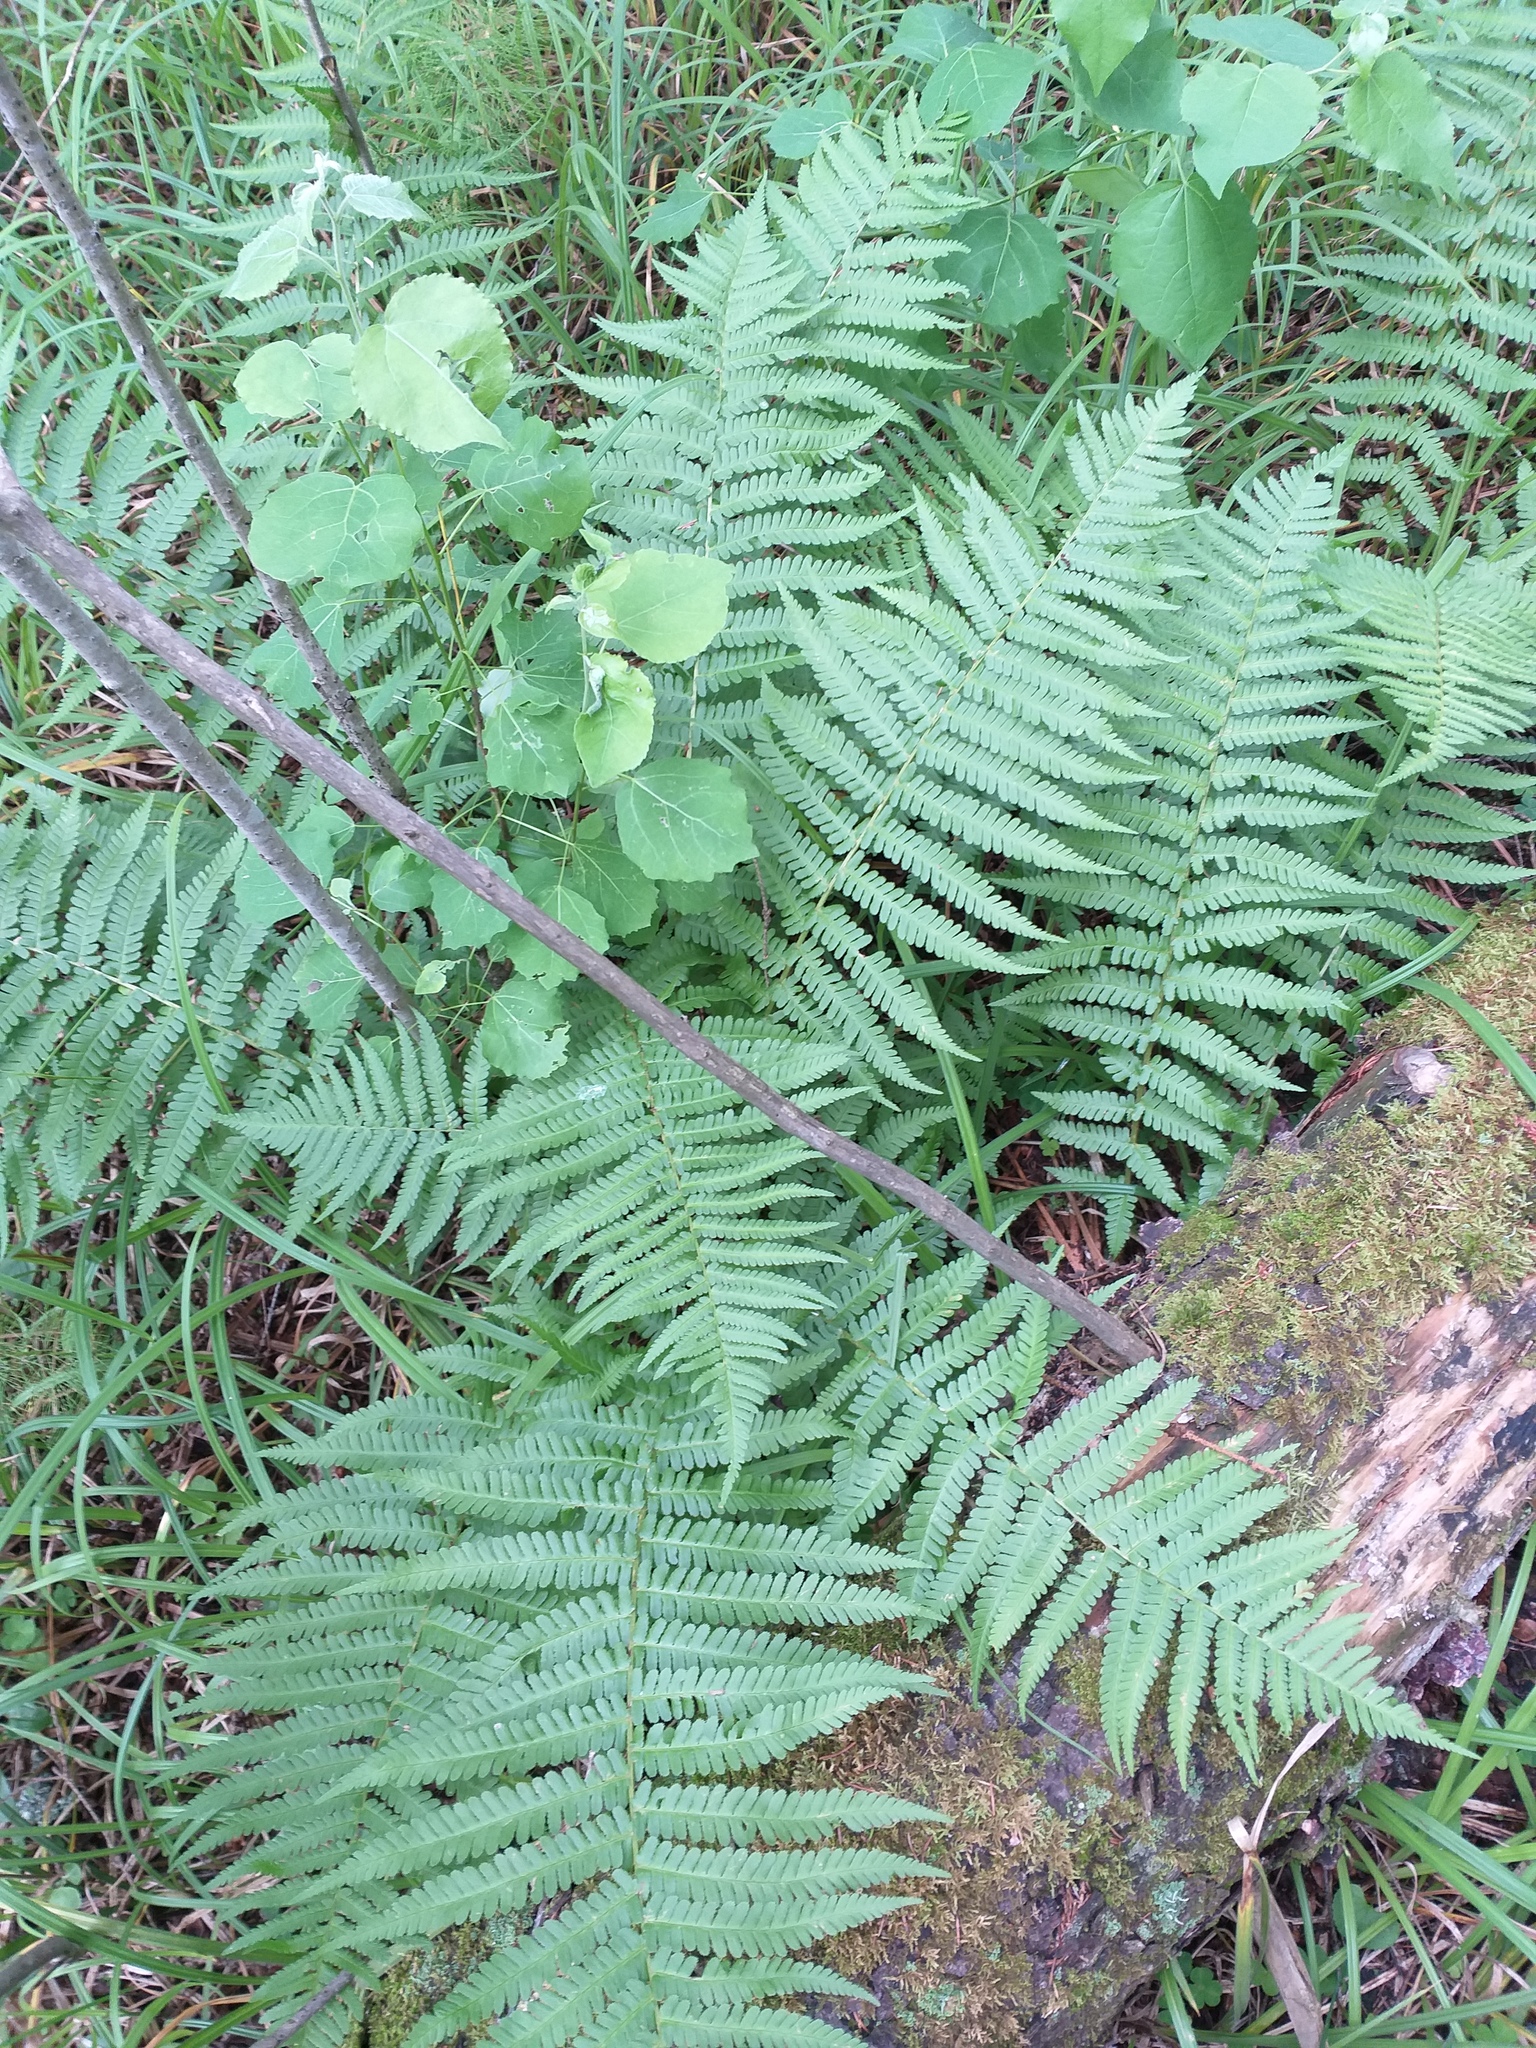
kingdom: Plantae
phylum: Tracheophyta
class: Polypodiopsida
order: Polypodiales
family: Dryopteridaceae
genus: Dryopteris
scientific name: Dryopteris filix-mas
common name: Male fern
